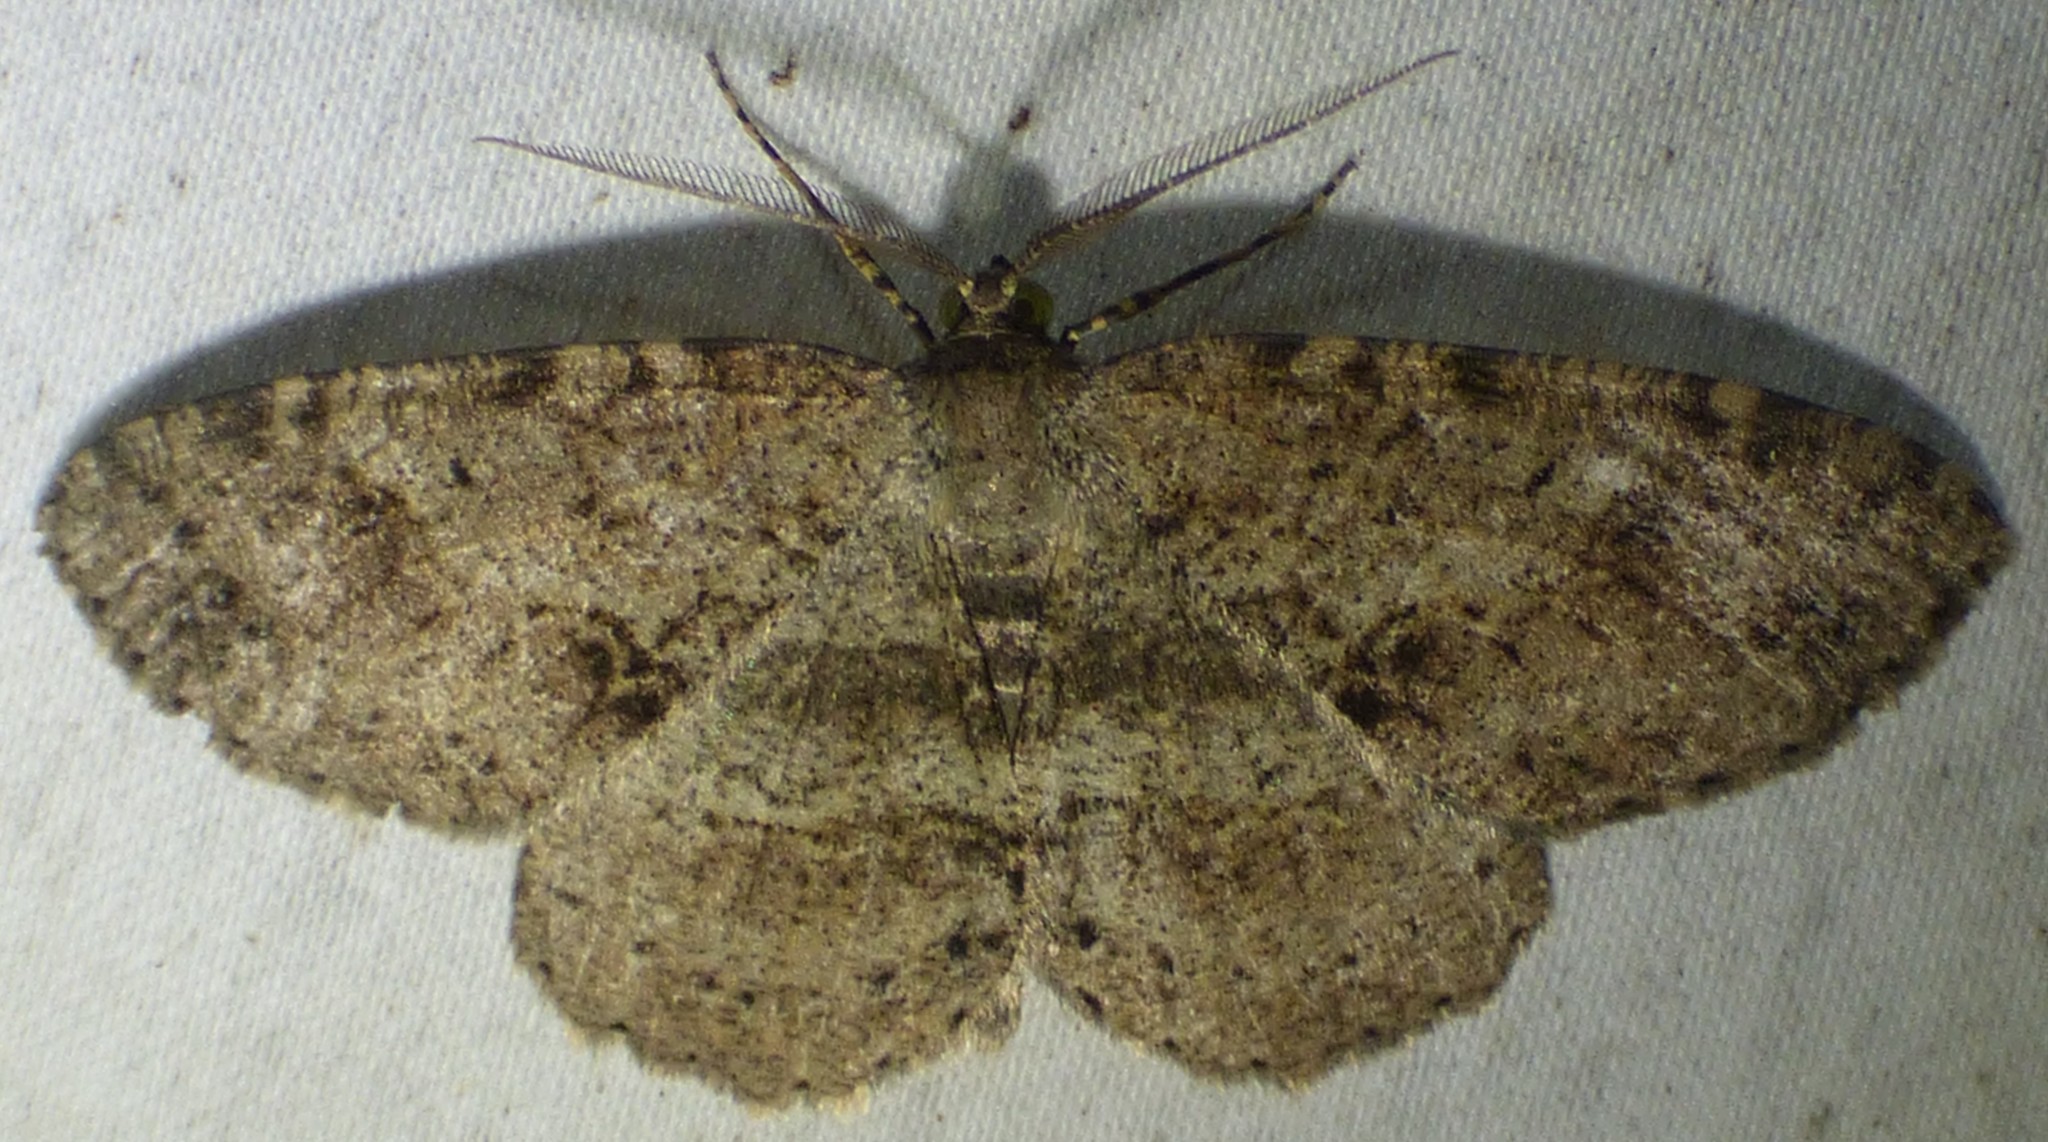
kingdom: Animalia
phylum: Arthropoda
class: Insecta
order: Lepidoptera
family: Geometridae
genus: Melanolophia
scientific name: Melanolophia canadaria
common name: Canadian melanolophia
